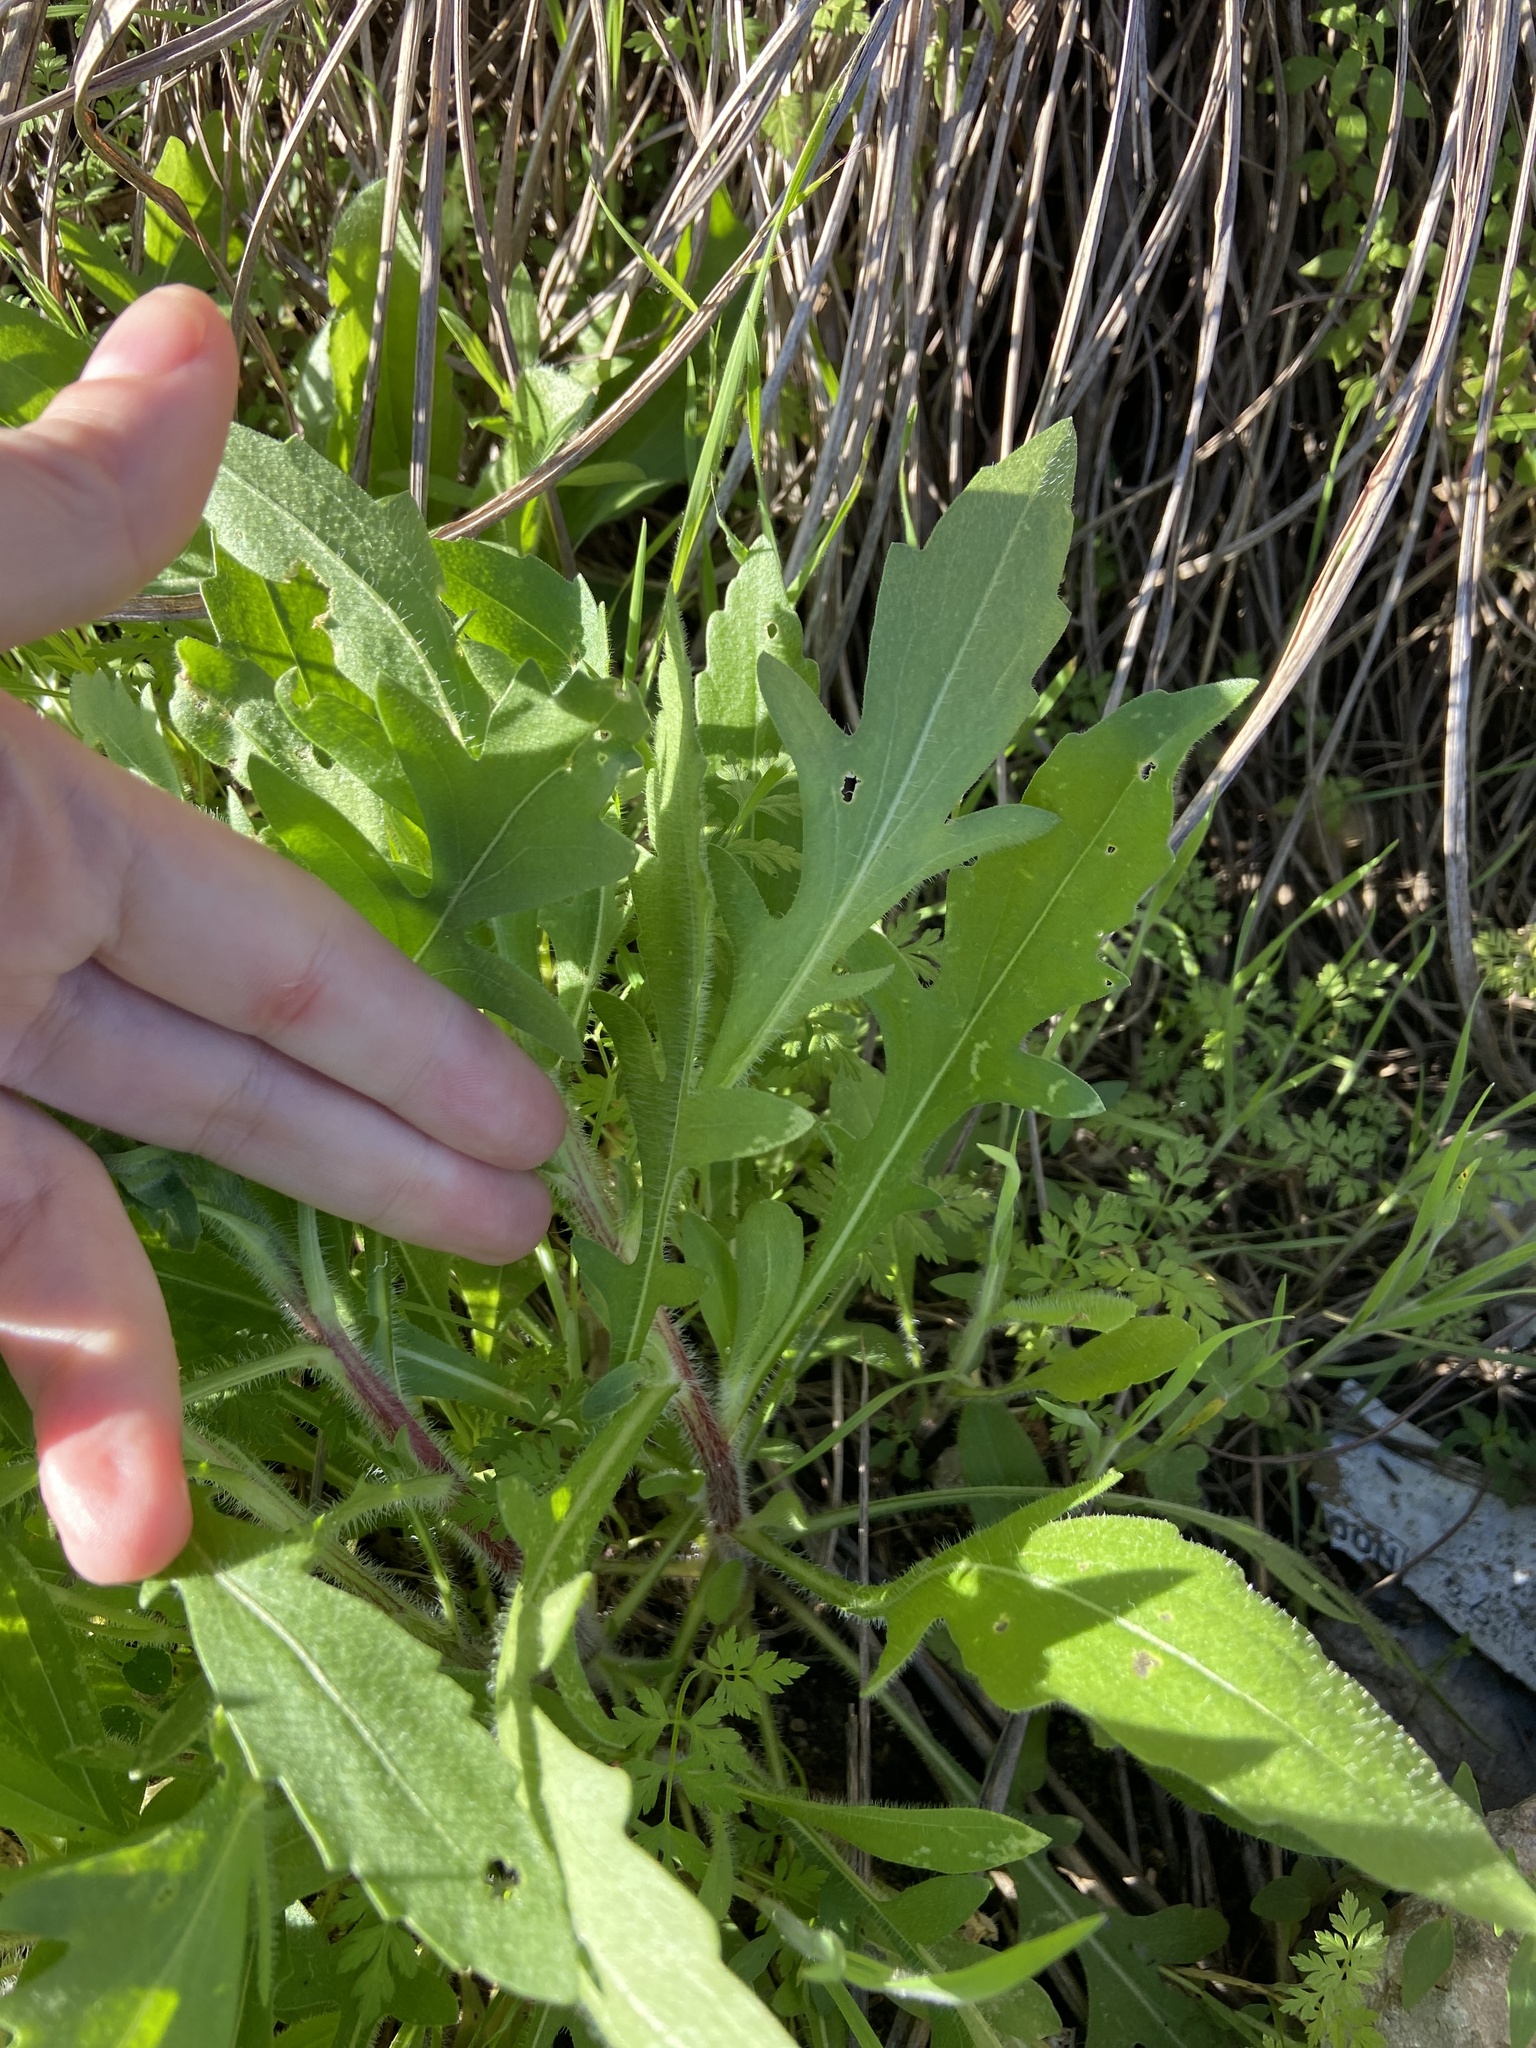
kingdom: Plantae
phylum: Tracheophyta
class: Magnoliopsida
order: Asterales
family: Asteraceae
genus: Engelmannia
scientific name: Engelmannia peristenia
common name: Engelmann's daisy
